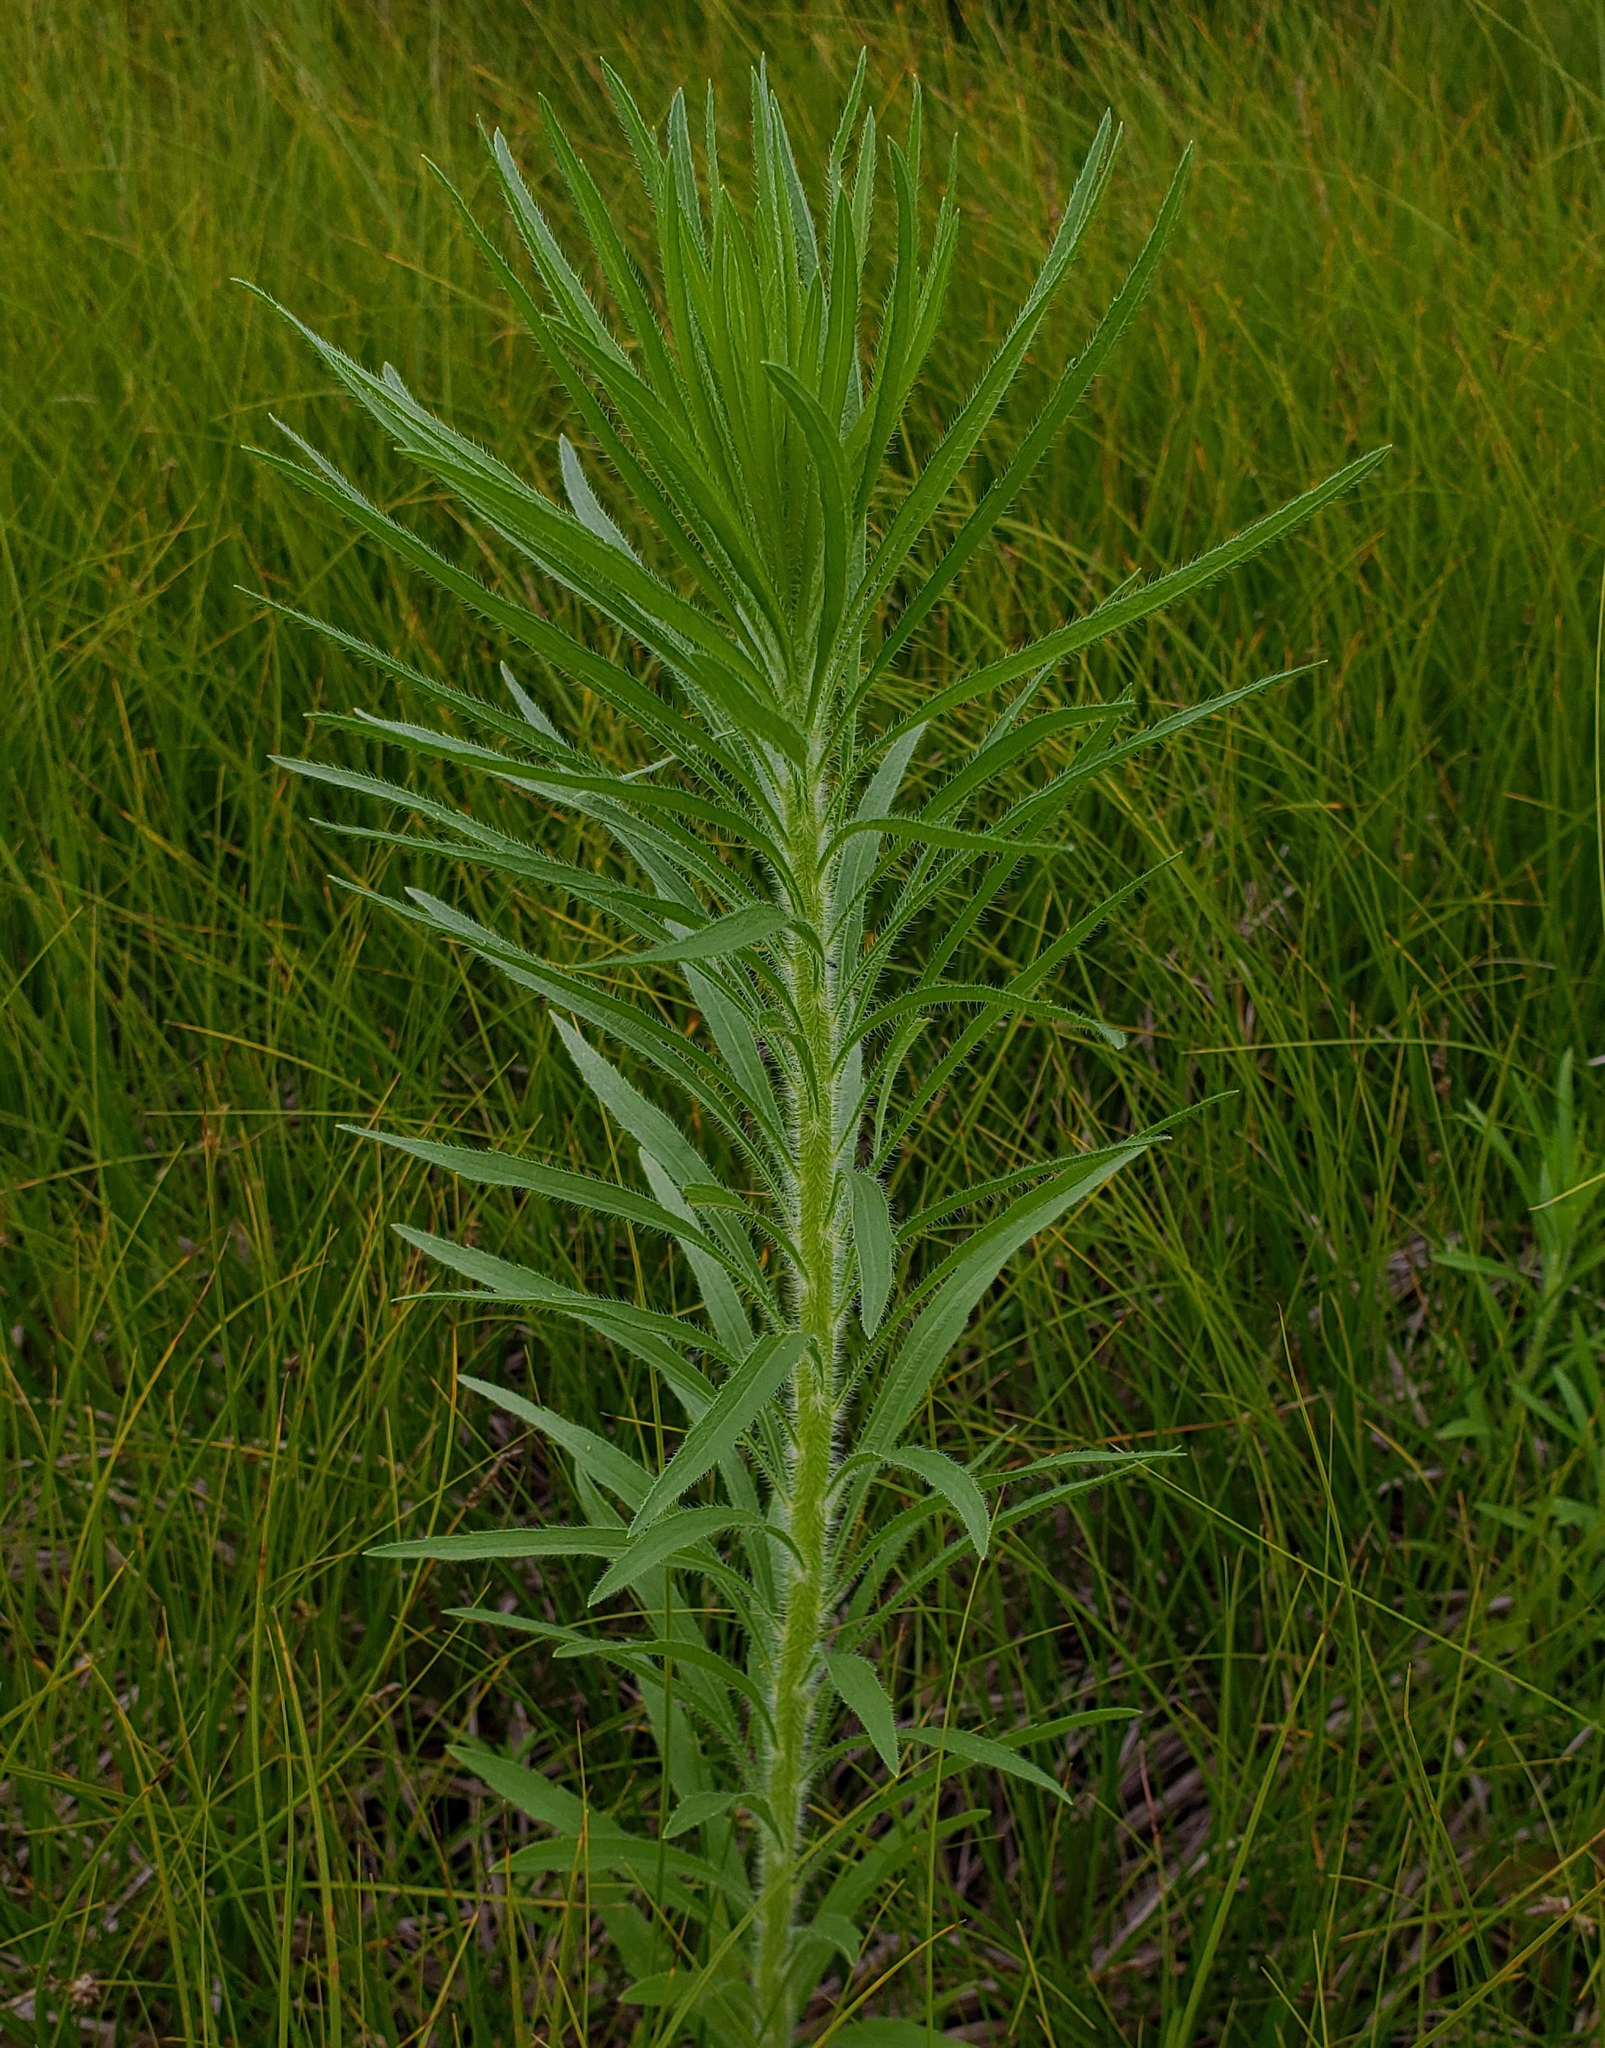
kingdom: Plantae
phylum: Tracheophyta
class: Magnoliopsida
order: Asterales
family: Asteraceae
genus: Erigeron
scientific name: Erigeron canadensis
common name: Canadian fleabane
